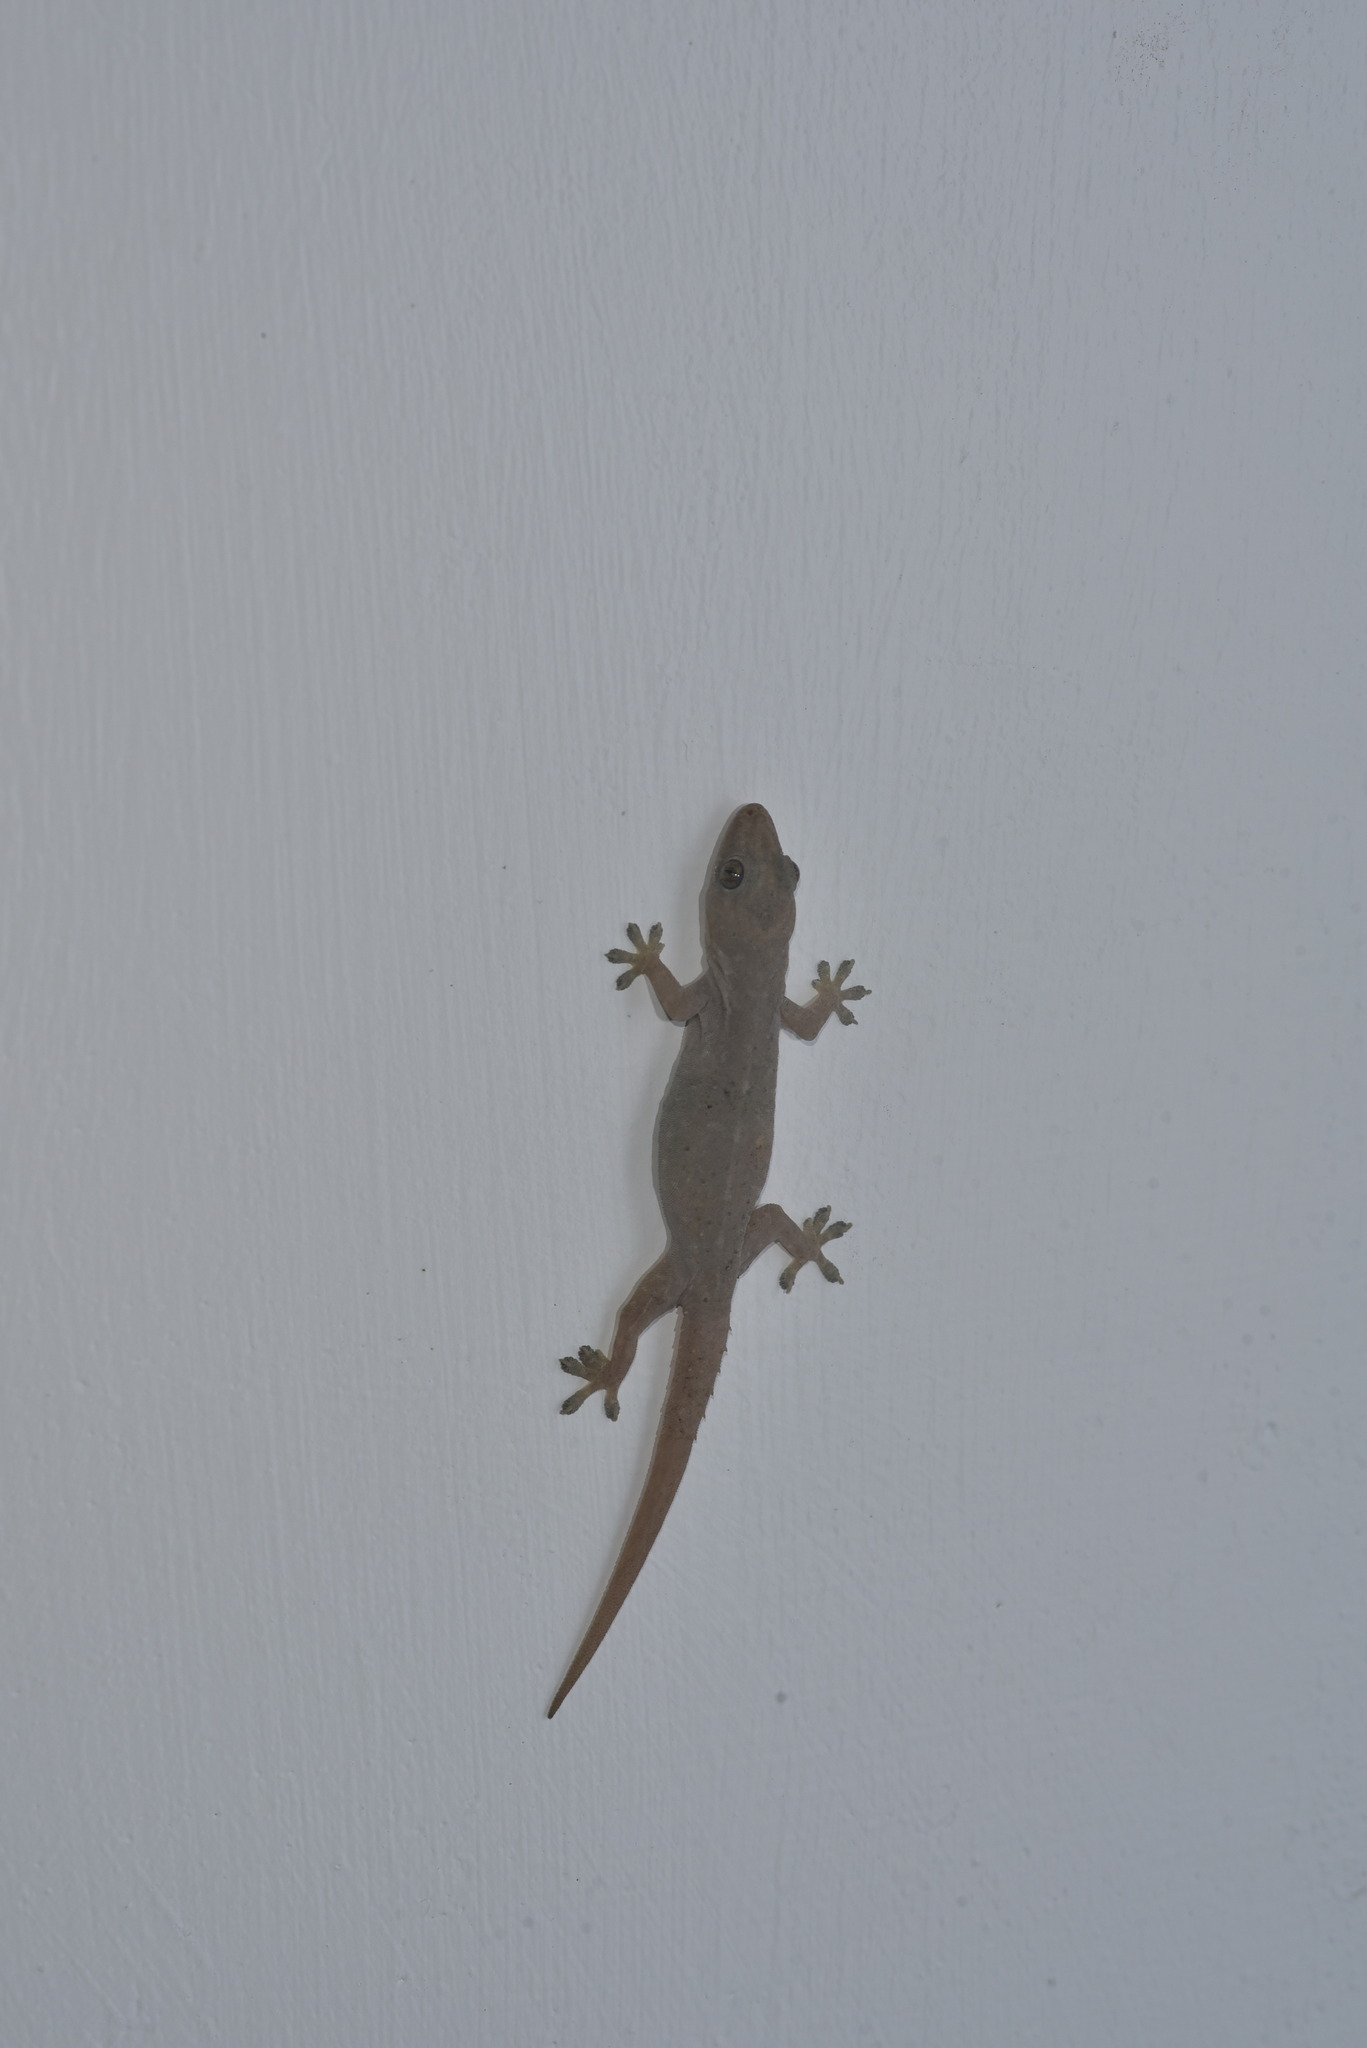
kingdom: Animalia
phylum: Chordata
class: Squamata
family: Gekkonidae
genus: Hemidactylus
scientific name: Hemidactylus frenatus
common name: Common house gecko
